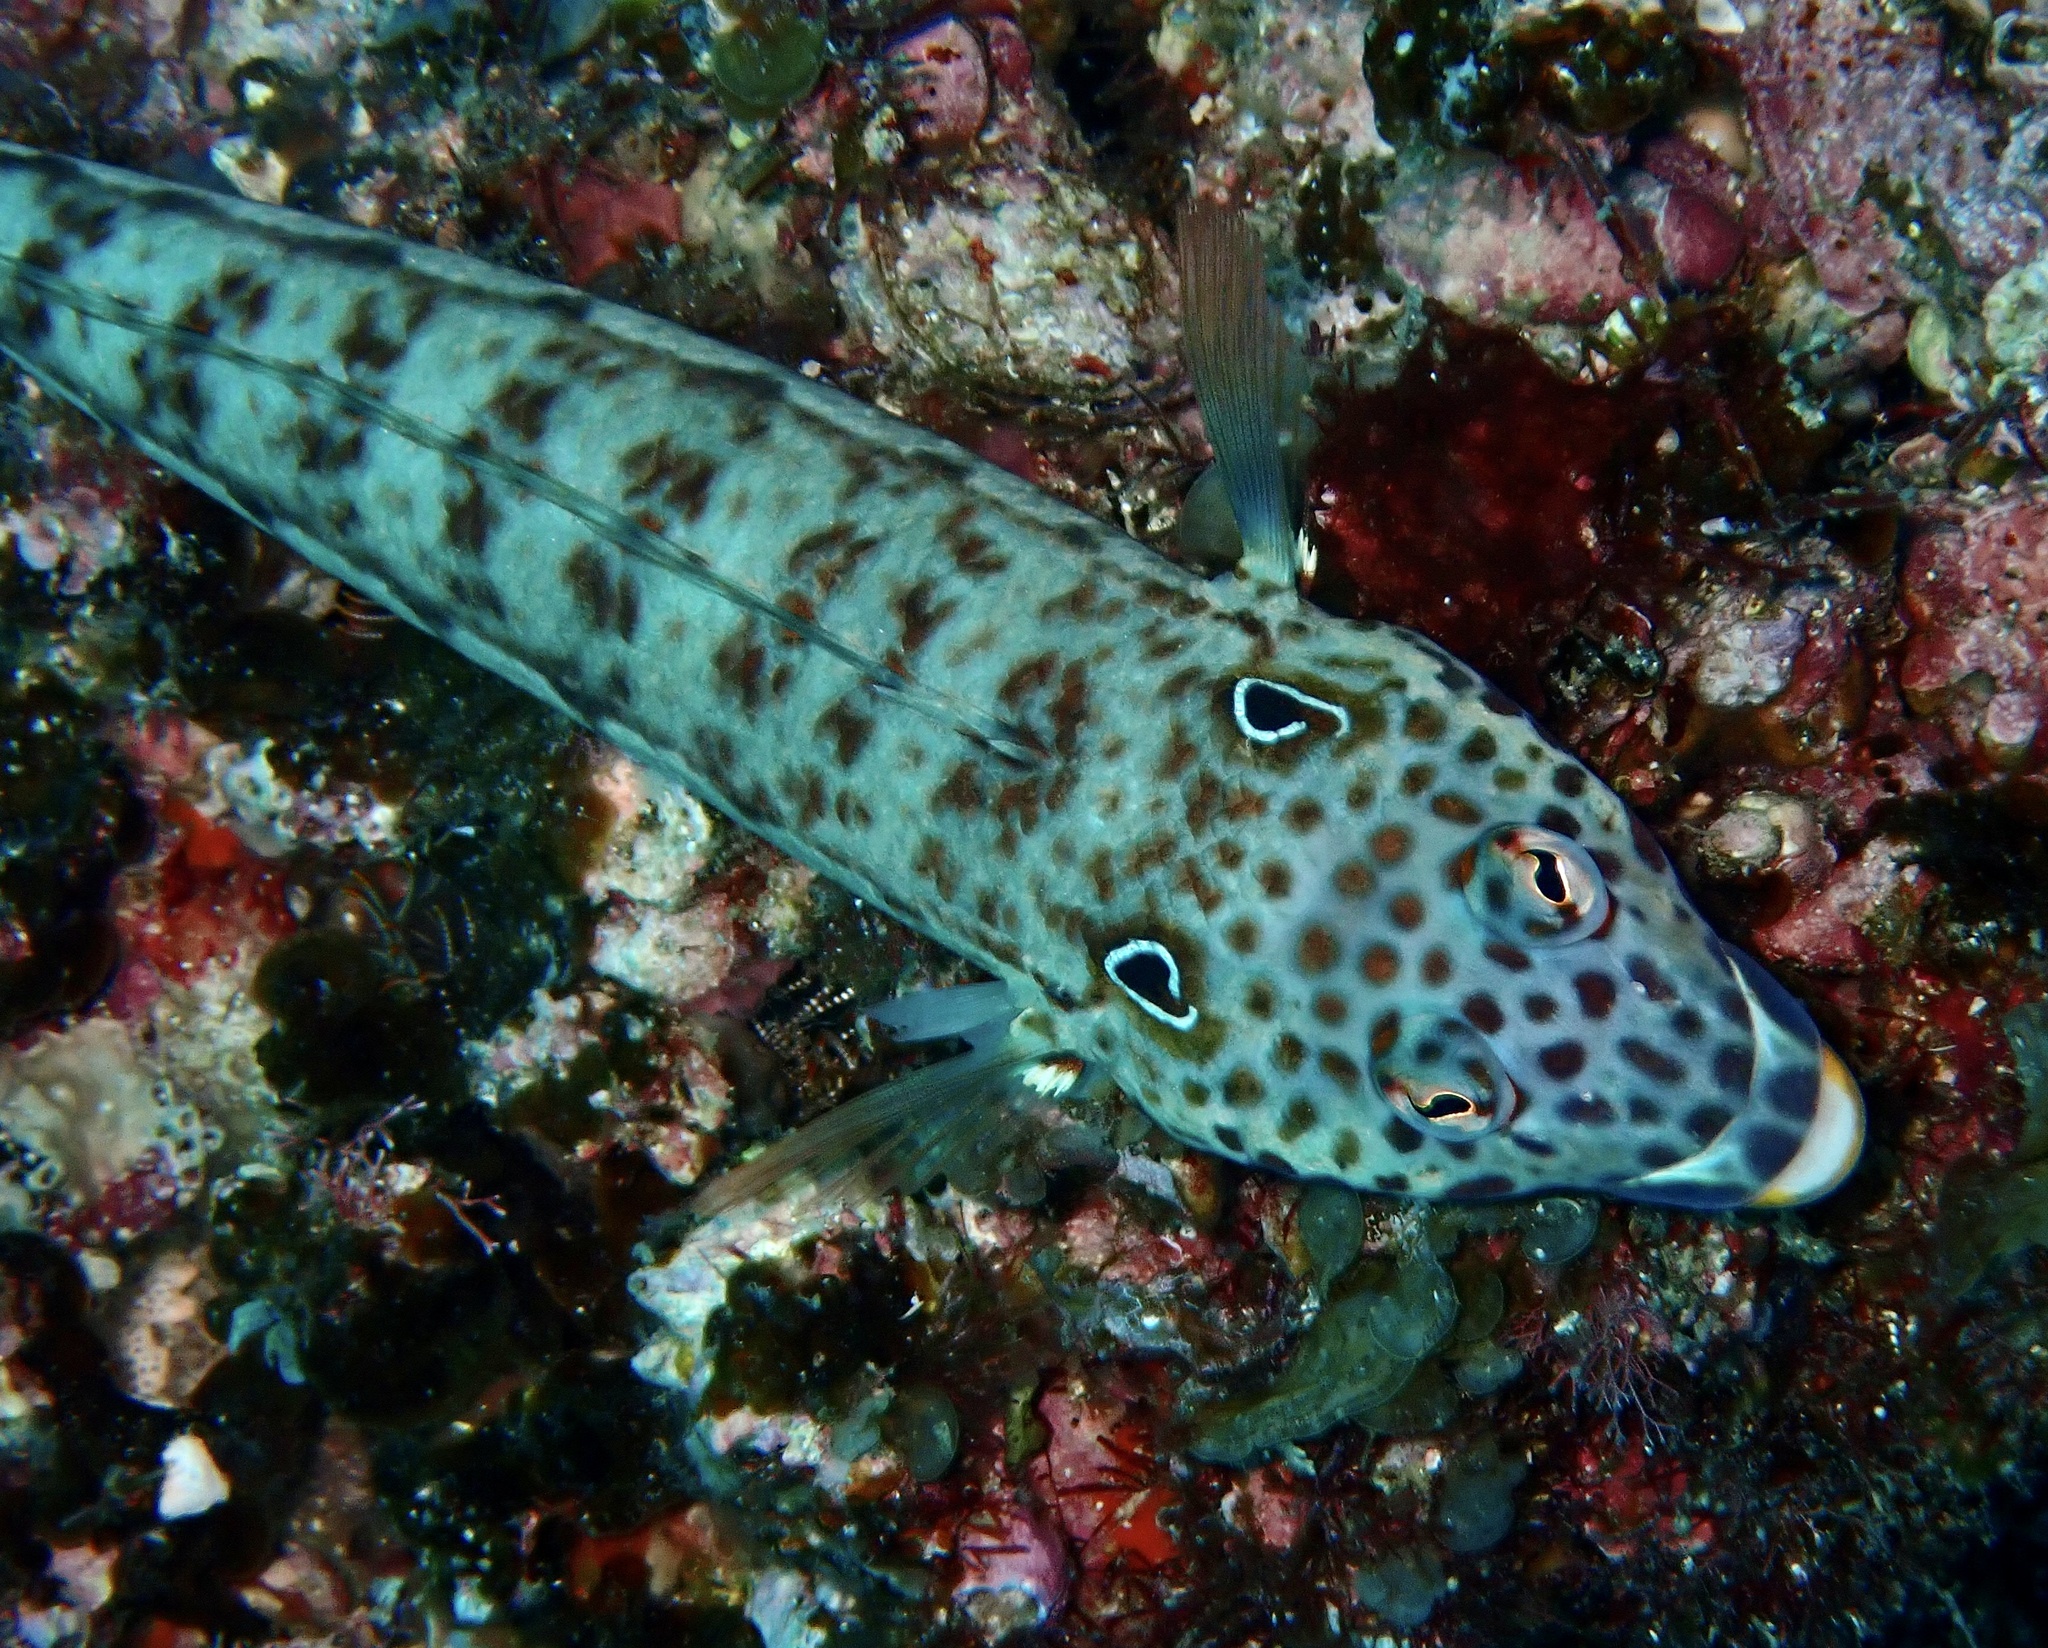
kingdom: Animalia
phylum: Chordata
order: Perciformes
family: Pinguipedidae
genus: Parapercis
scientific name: Parapercis clathrata
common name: Latticed sandperch
